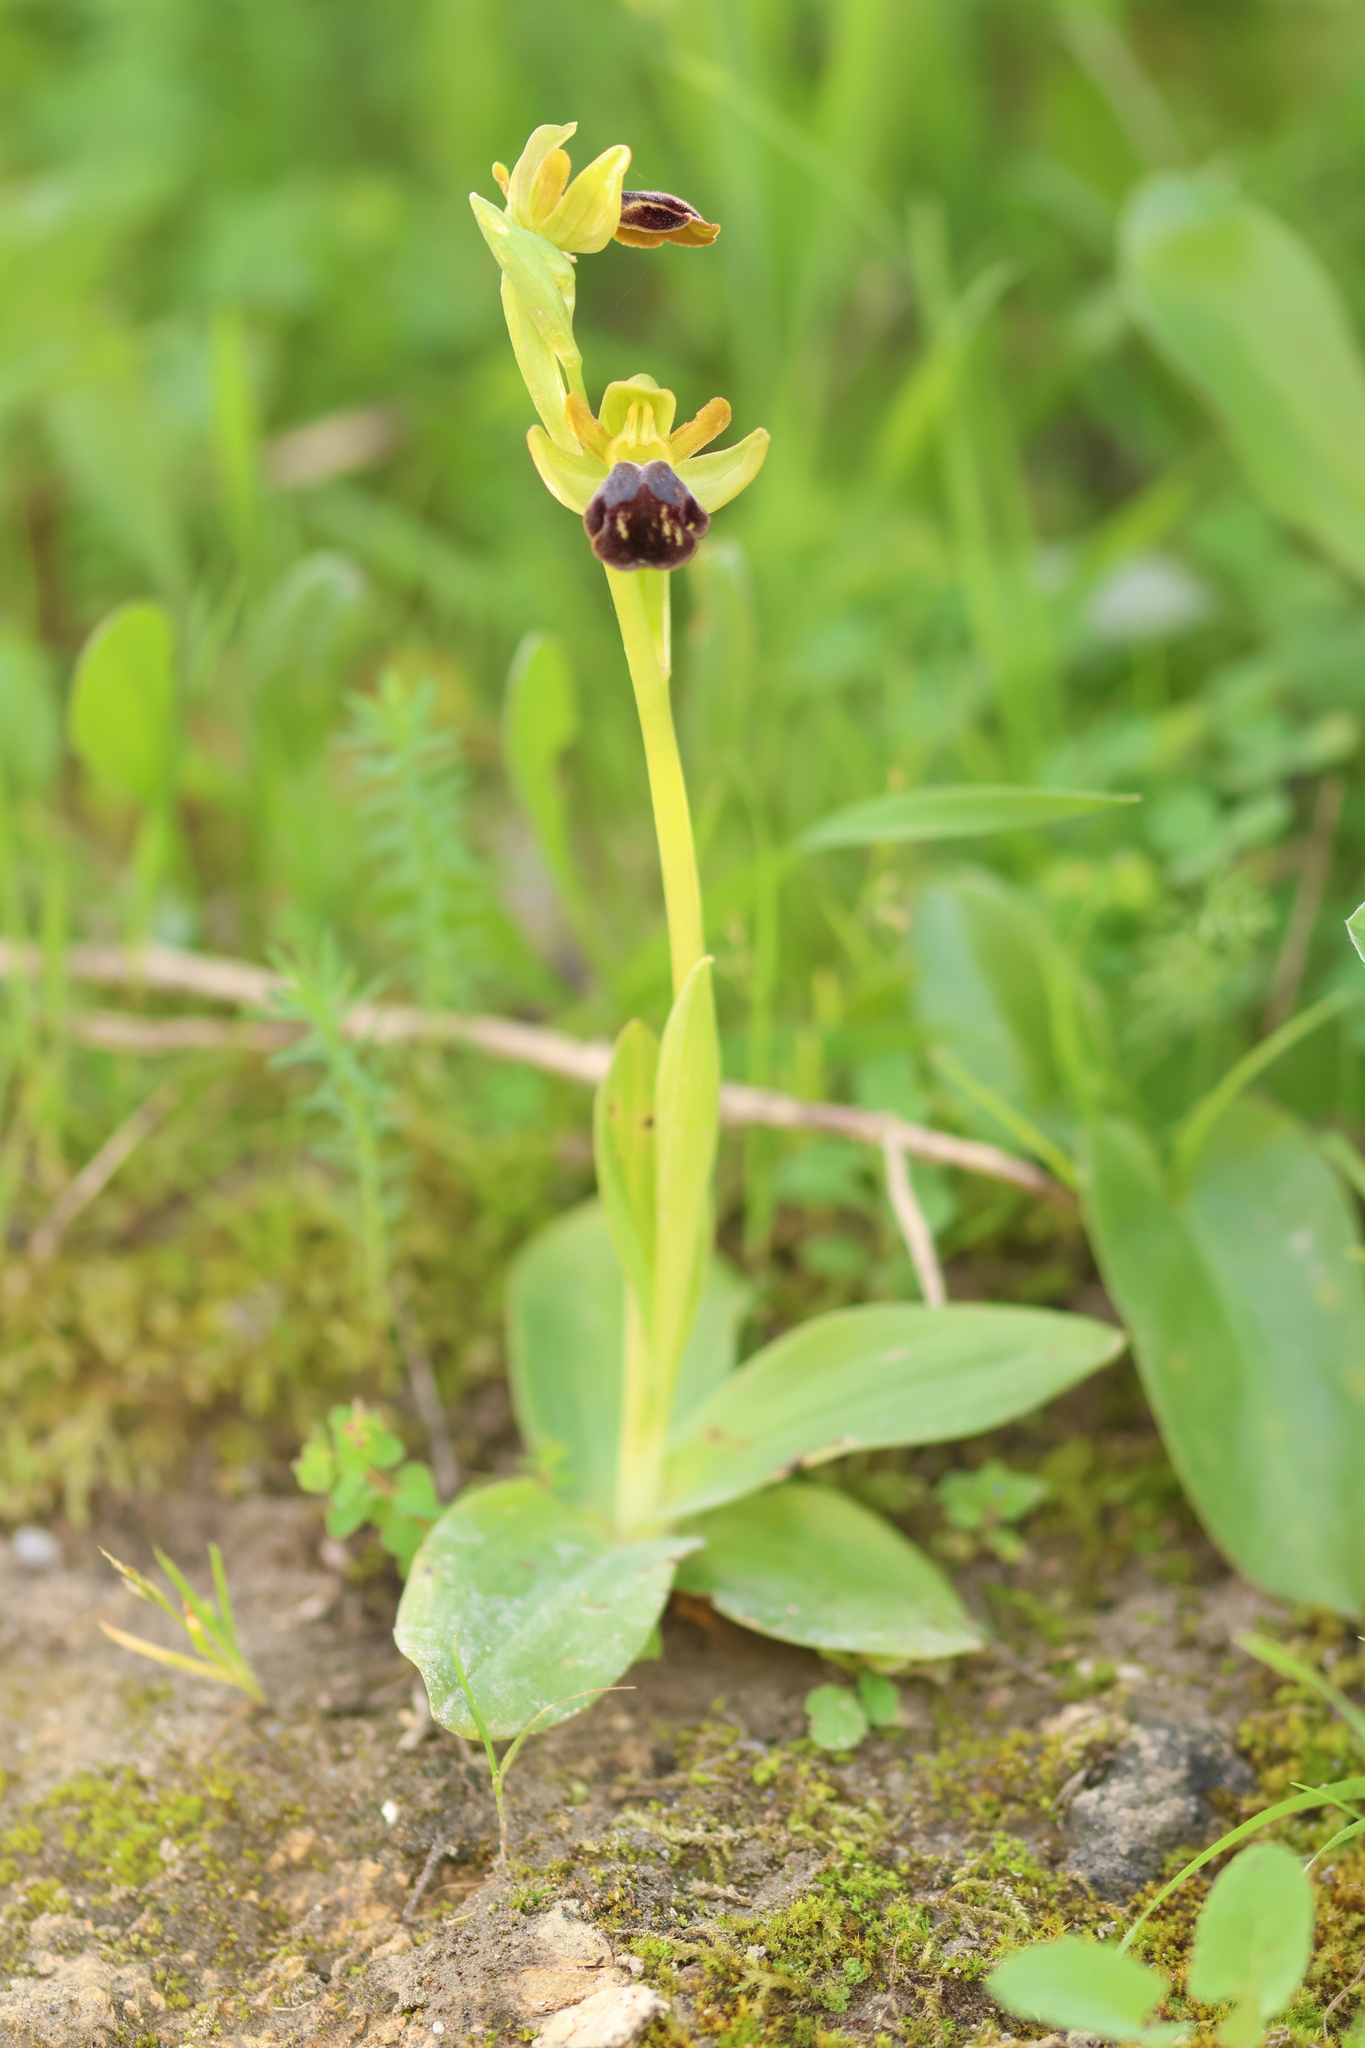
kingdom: Plantae
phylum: Tracheophyta
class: Liliopsida
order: Asparagales
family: Orchidaceae
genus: Ophrys
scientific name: Ophrys fusca
